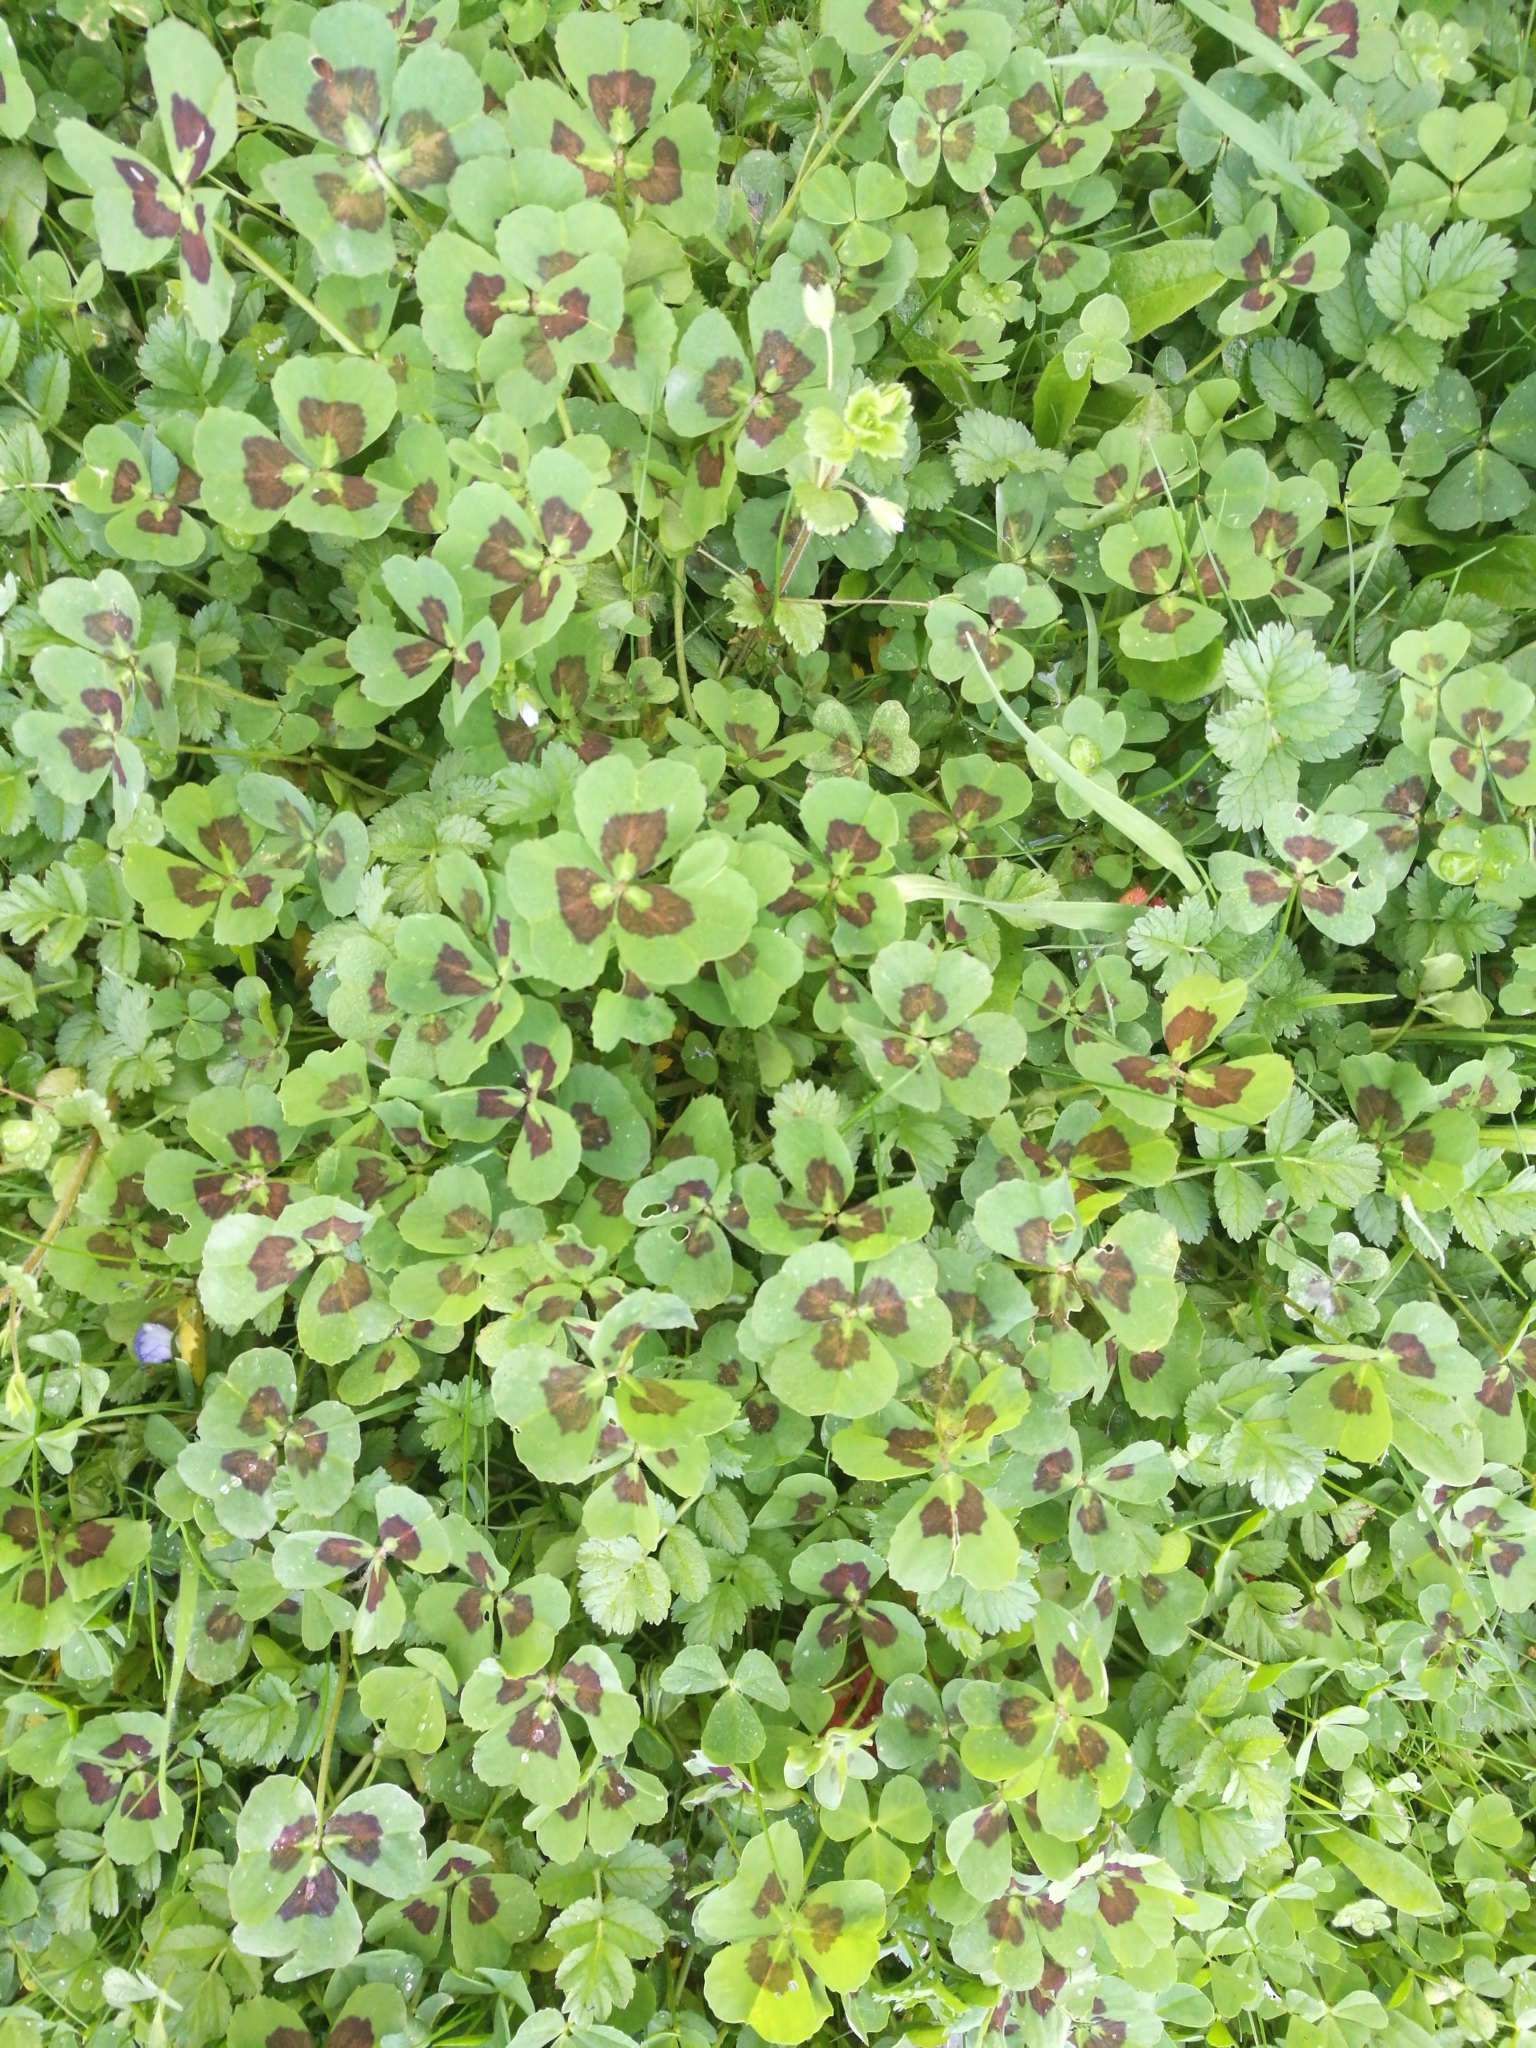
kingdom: Plantae
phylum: Tracheophyta
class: Magnoliopsida
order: Fabales
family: Fabaceae
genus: Medicago
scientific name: Medicago arabica
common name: Spotted medick
